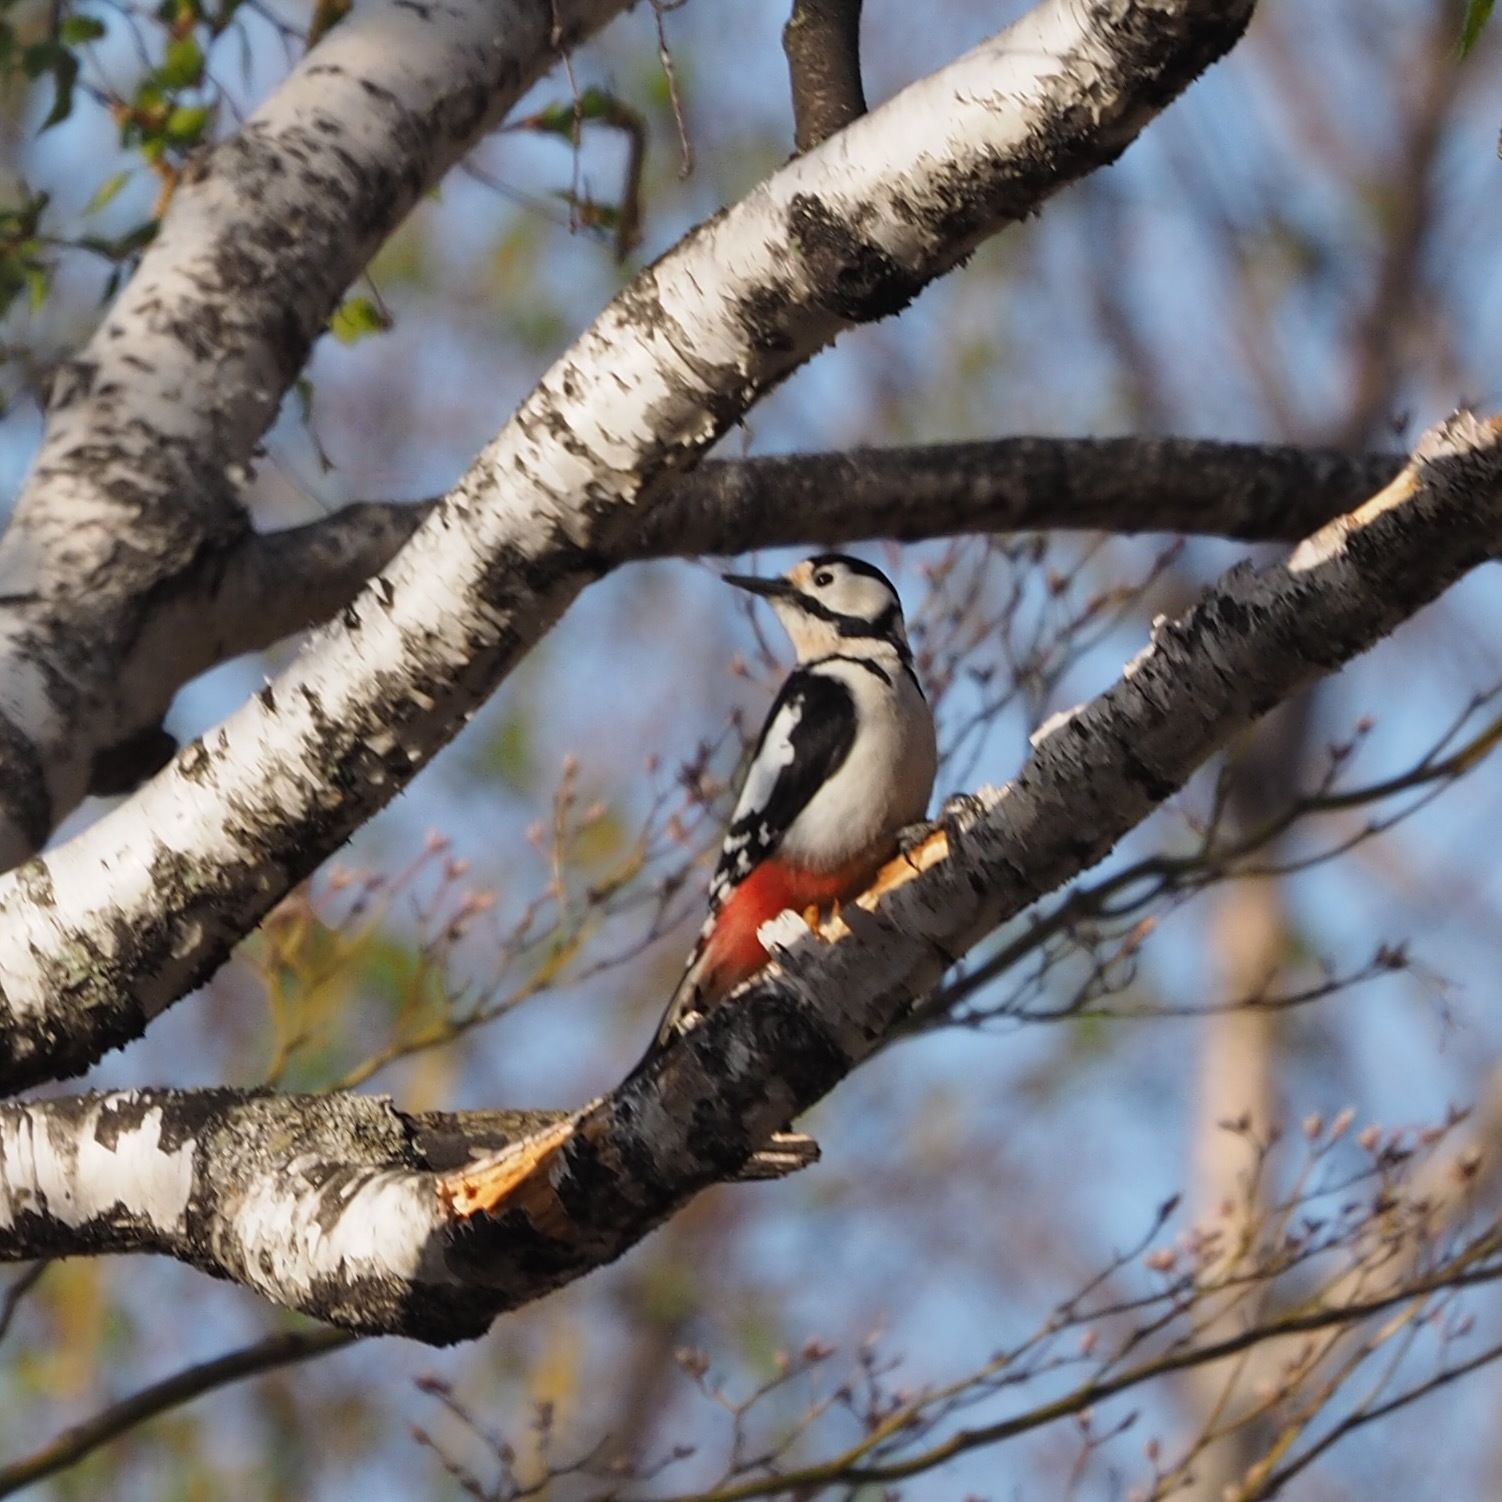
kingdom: Animalia
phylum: Chordata
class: Aves
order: Piciformes
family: Picidae
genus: Dendrocopos
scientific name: Dendrocopos major
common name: Great spotted woodpecker
